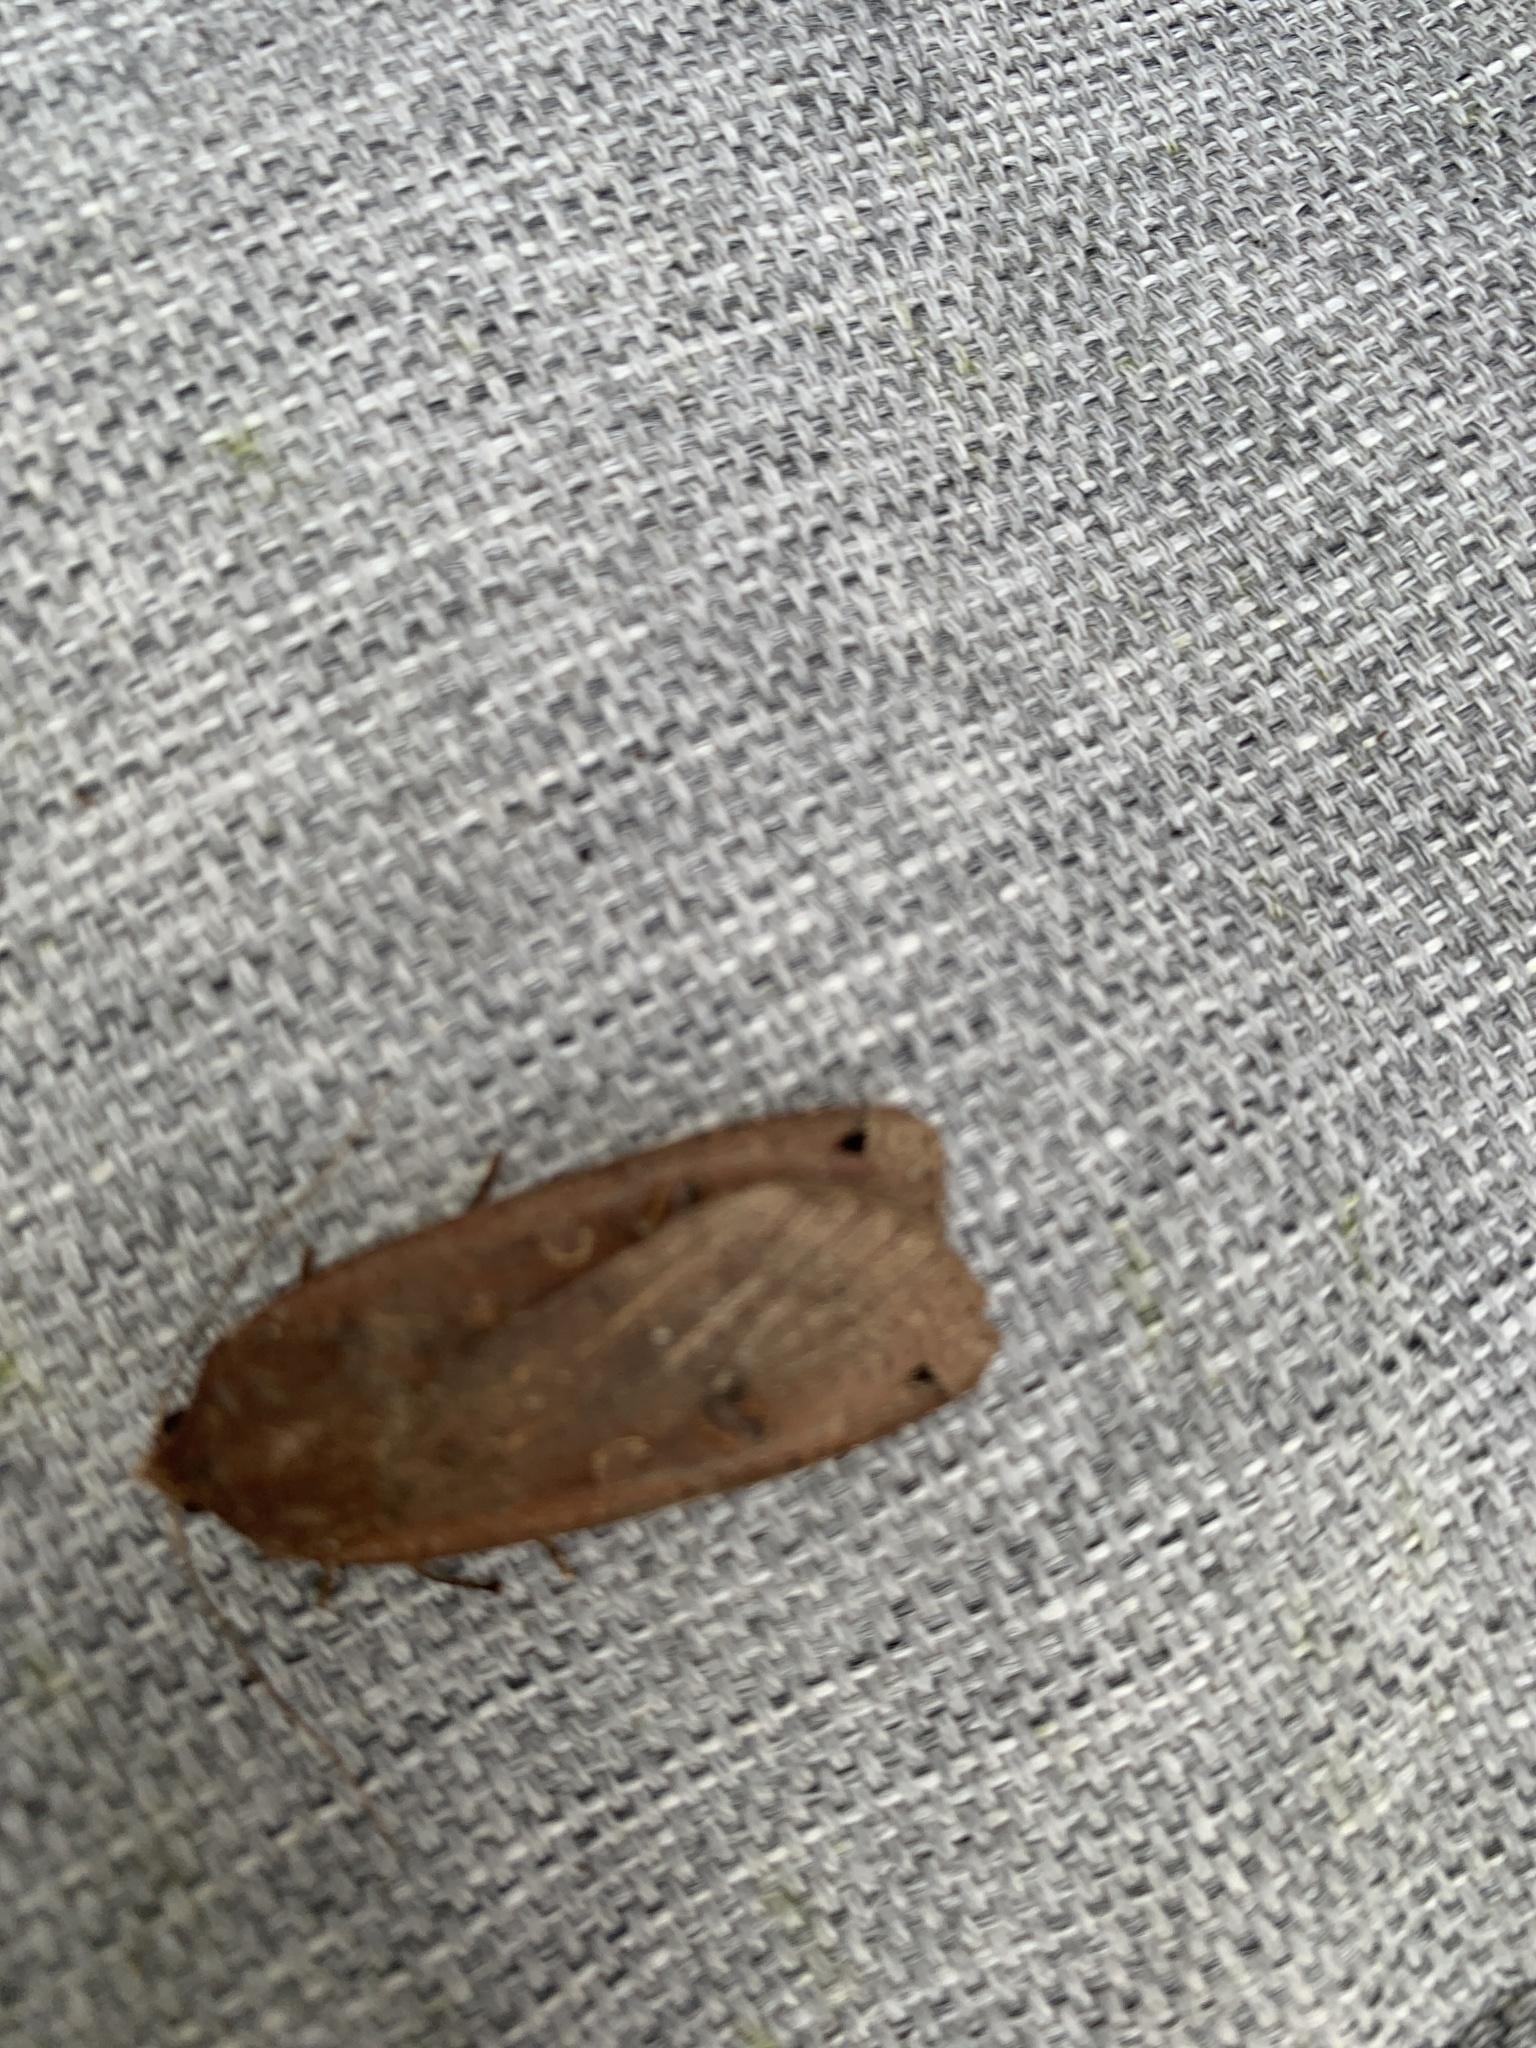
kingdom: Animalia
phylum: Arthropoda
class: Insecta
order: Lepidoptera
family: Noctuidae
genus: Noctua
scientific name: Noctua pronuba
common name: Large yellow underwing
